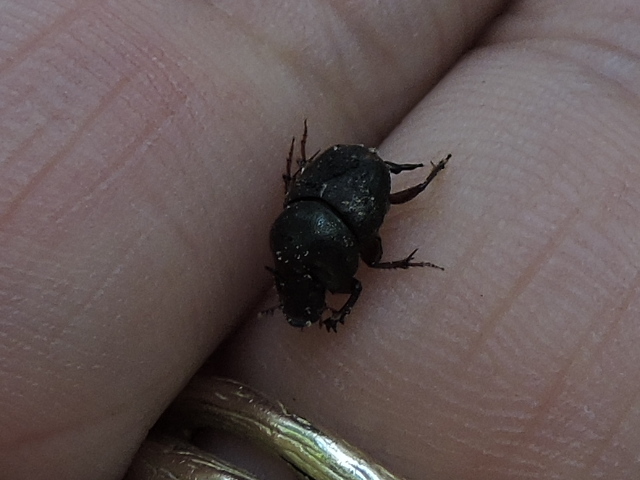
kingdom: Animalia
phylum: Arthropoda
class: Insecta
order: Coleoptera
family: Scarabaeidae
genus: Onthophagus
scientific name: Onthophagus taurus
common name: Bullhorned dung beetle
